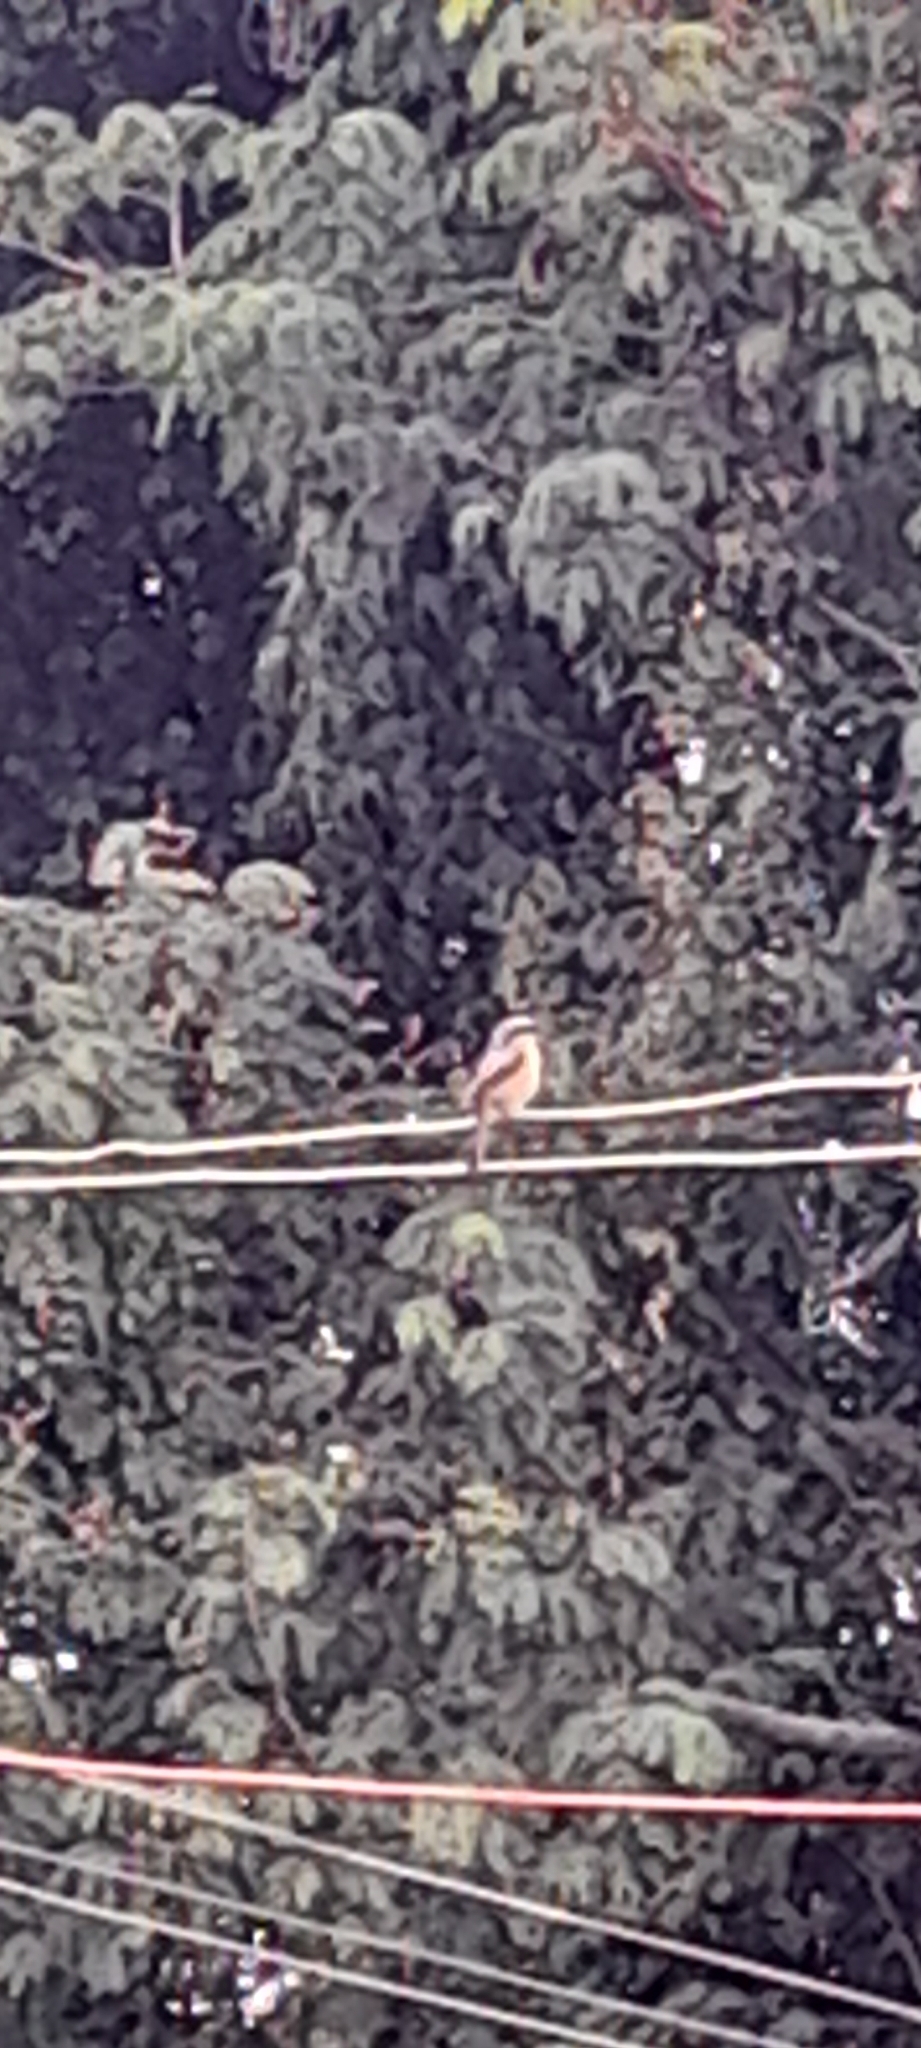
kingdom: Animalia
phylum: Chordata
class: Aves
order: Passeriformes
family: Laniidae
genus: Lanius
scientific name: Lanius schach
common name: Long-tailed shrike
